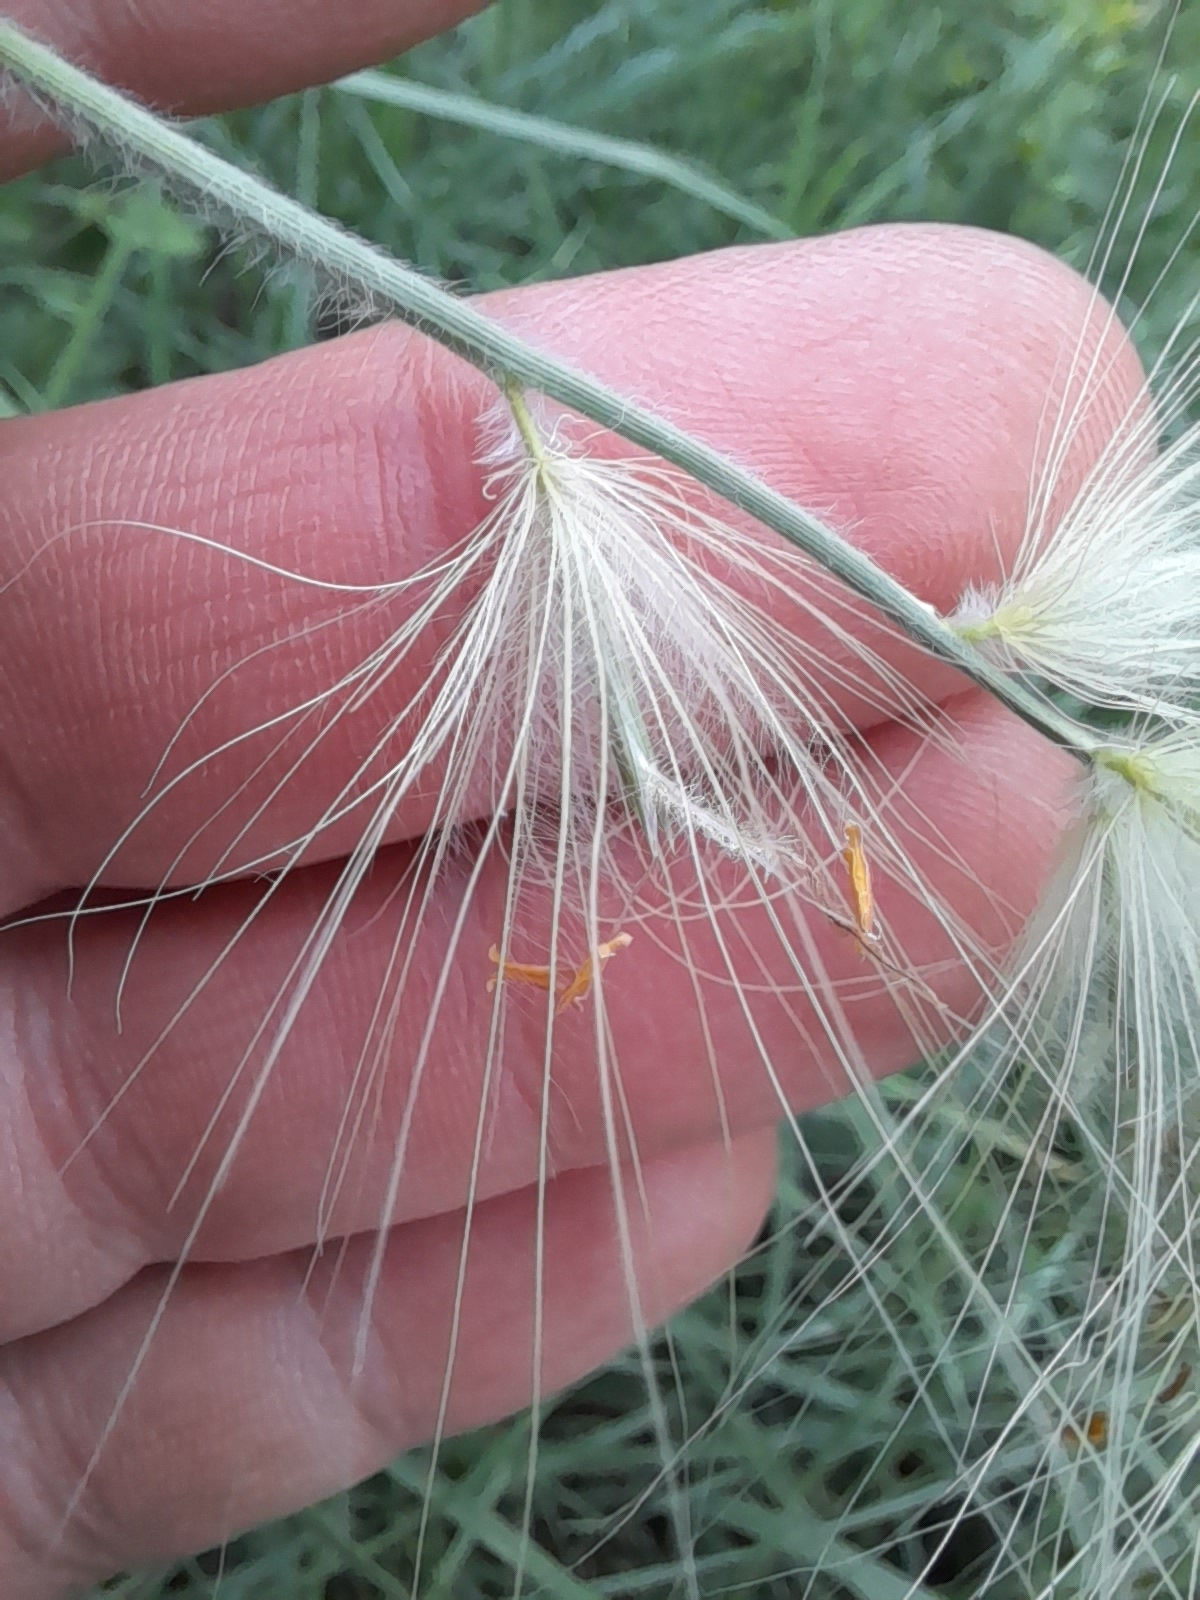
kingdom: Plantae
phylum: Tracheophyta
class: Liliopsida
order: Poales
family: Poaceae
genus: Cenchrus
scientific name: Cenchrus longisetus
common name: Feathertop
